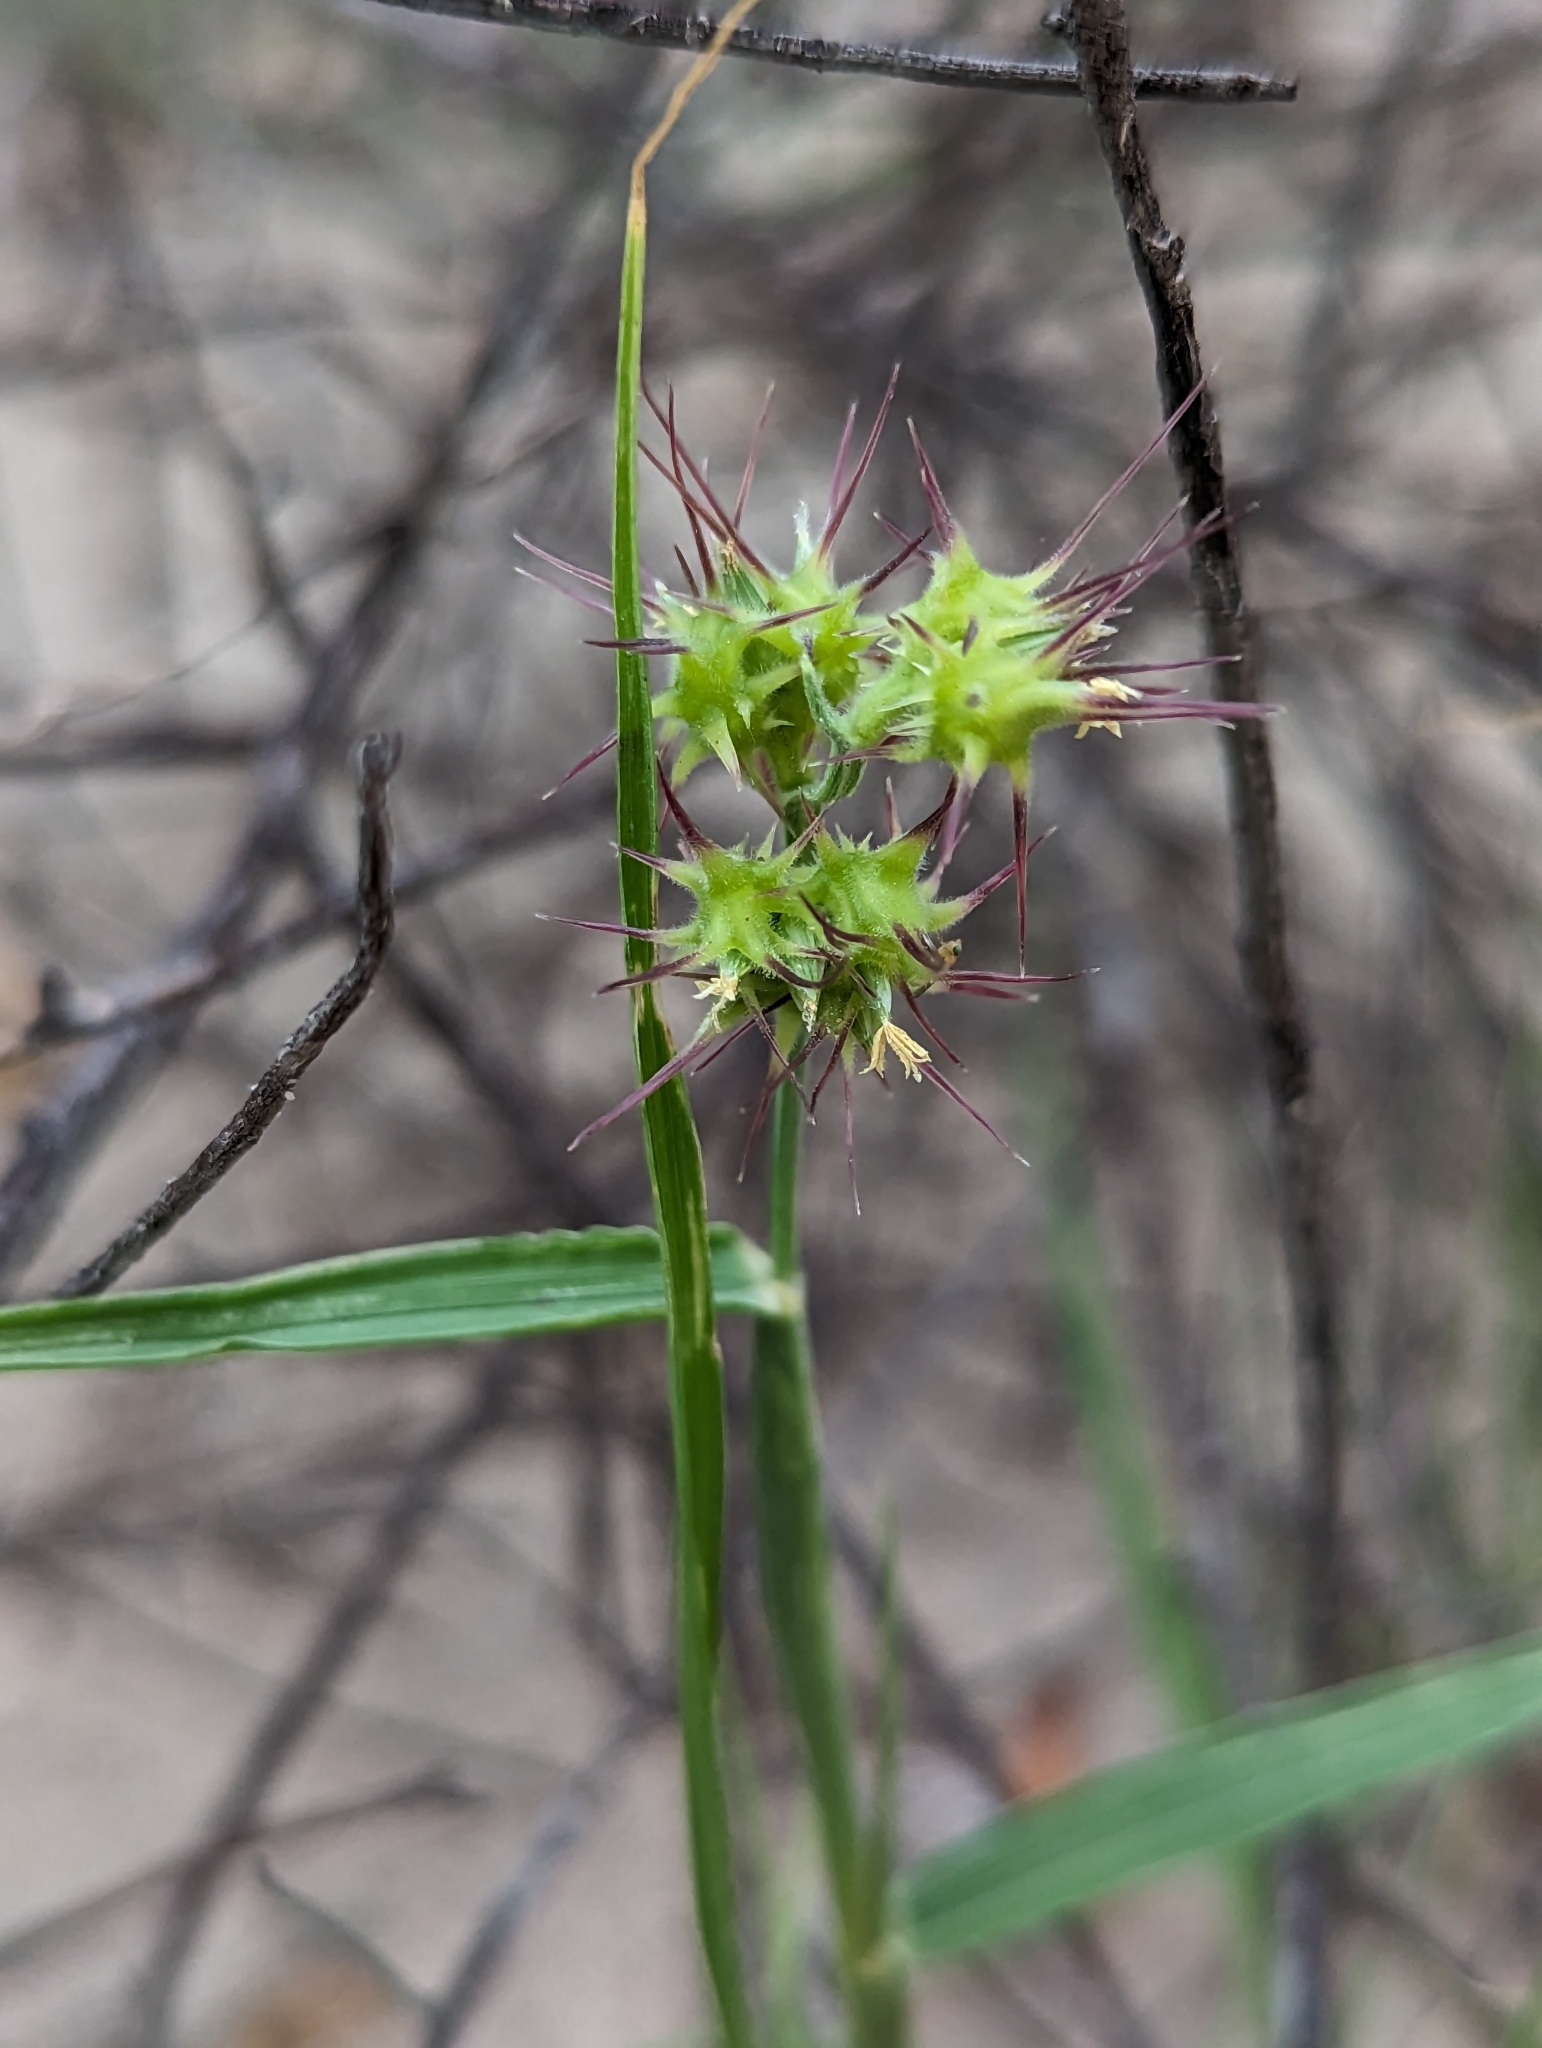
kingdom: Plantae
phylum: Tracheophyta
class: Liliopsida
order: Poales
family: Poaceae
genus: Cenchrus
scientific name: Cenchrus palmeri
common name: Giant sandbur
